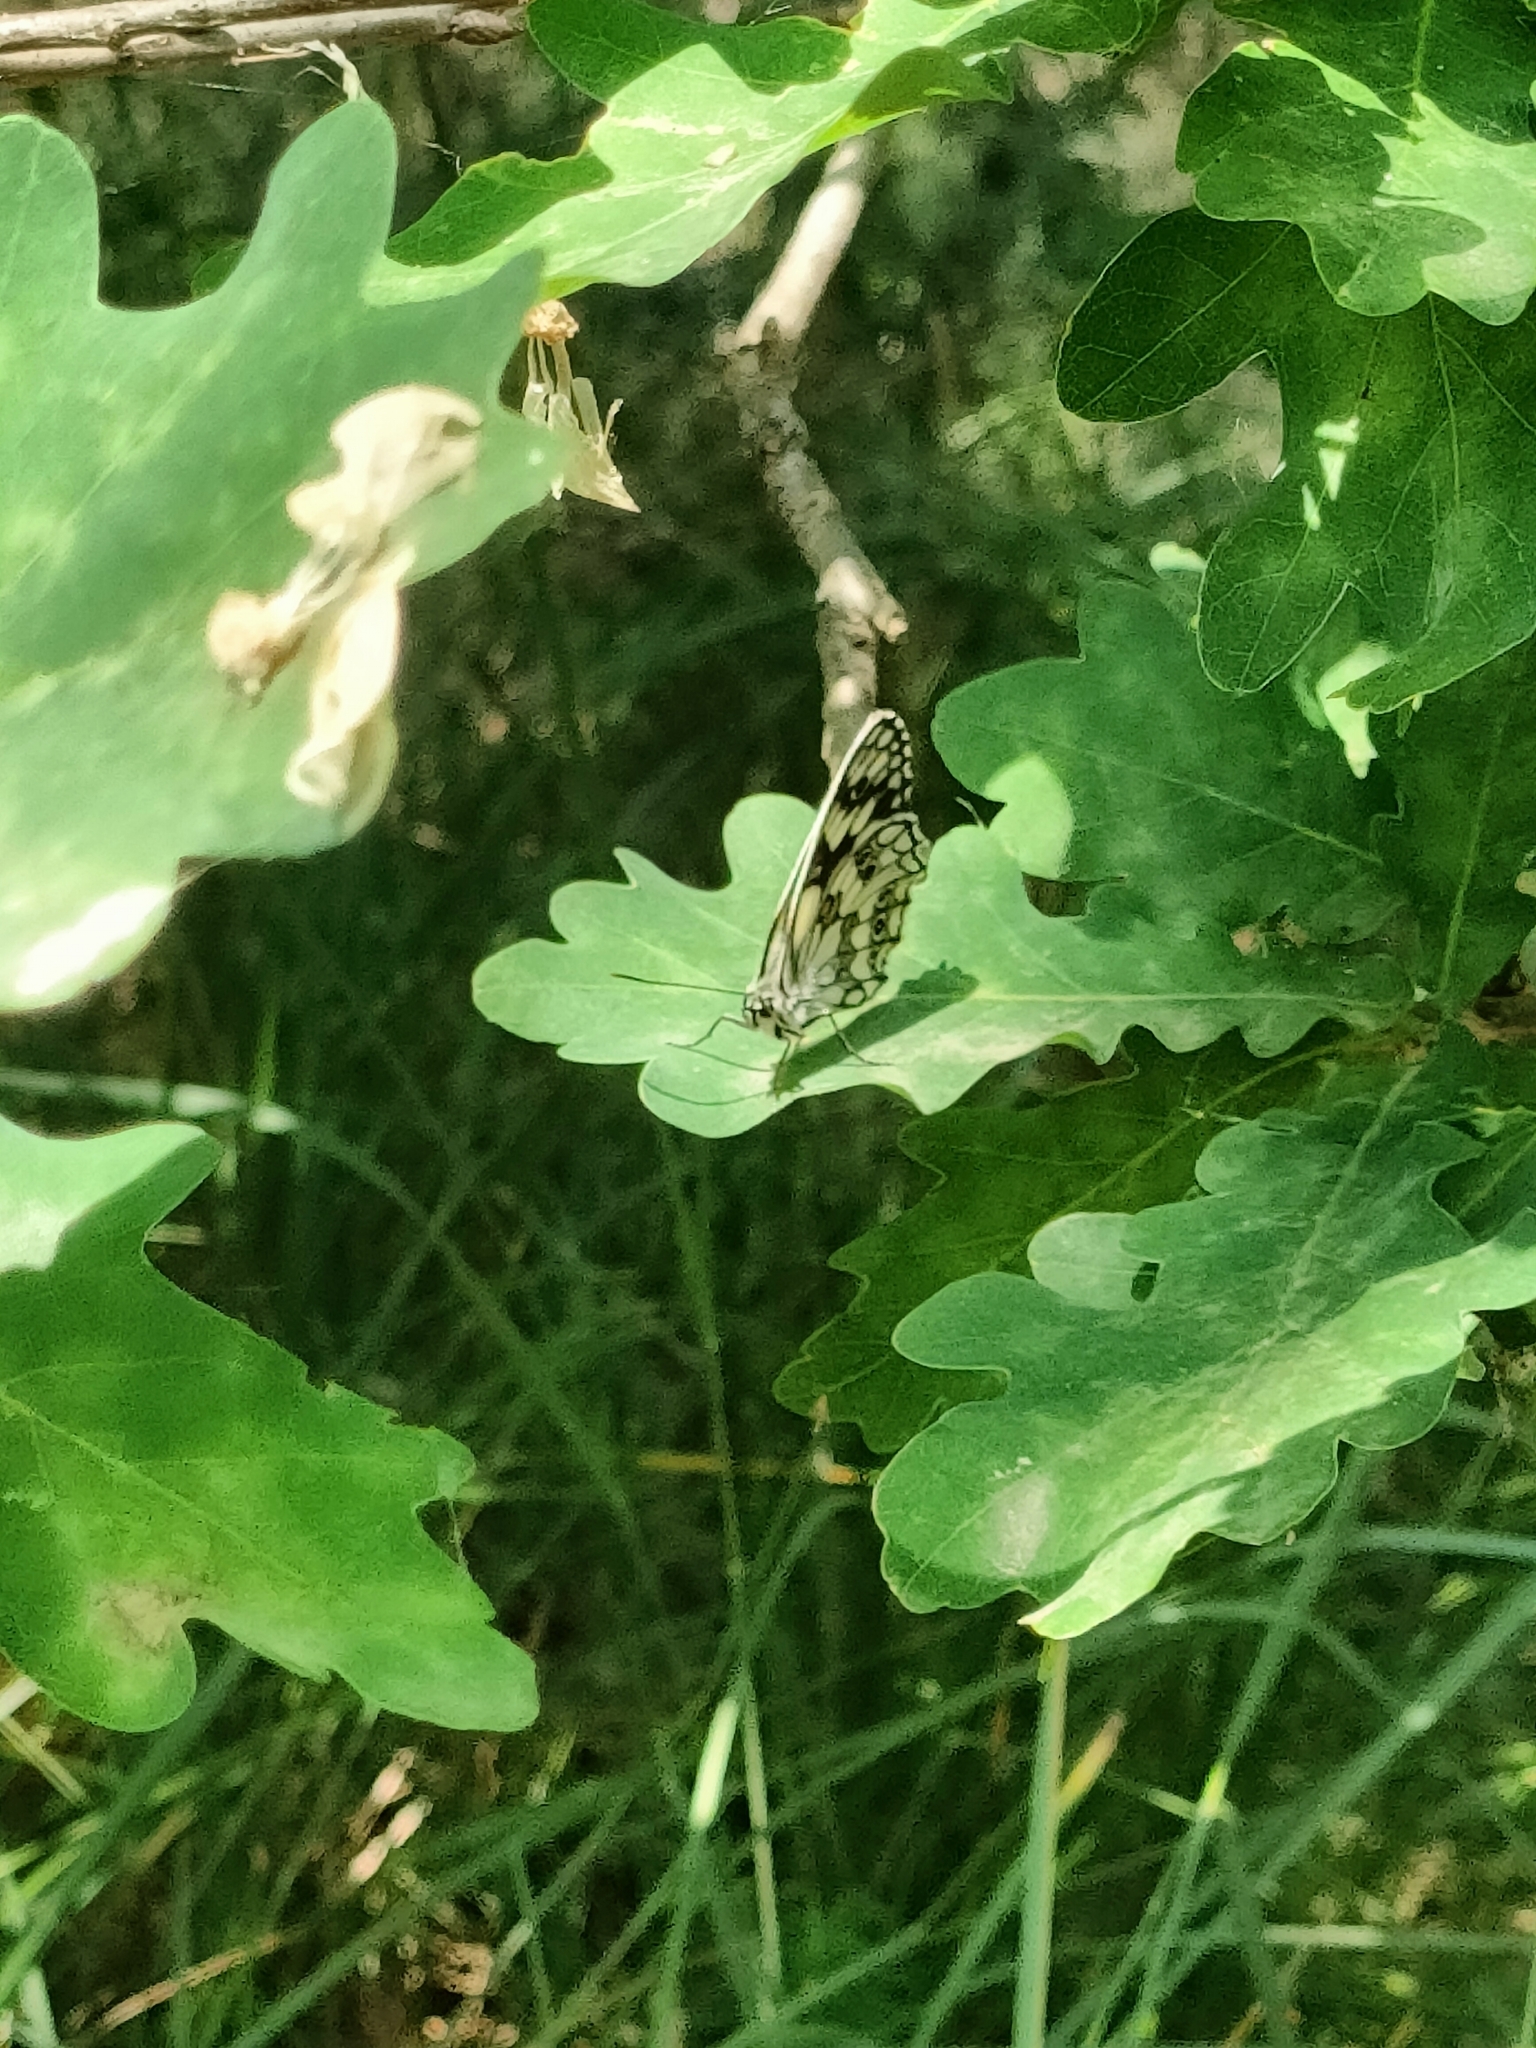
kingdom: Animalia
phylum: Arthropoda
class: Insecta
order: Lepidoptera
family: Nymphalidae
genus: Melanargia
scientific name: Melanargia galathea
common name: Marbled white
